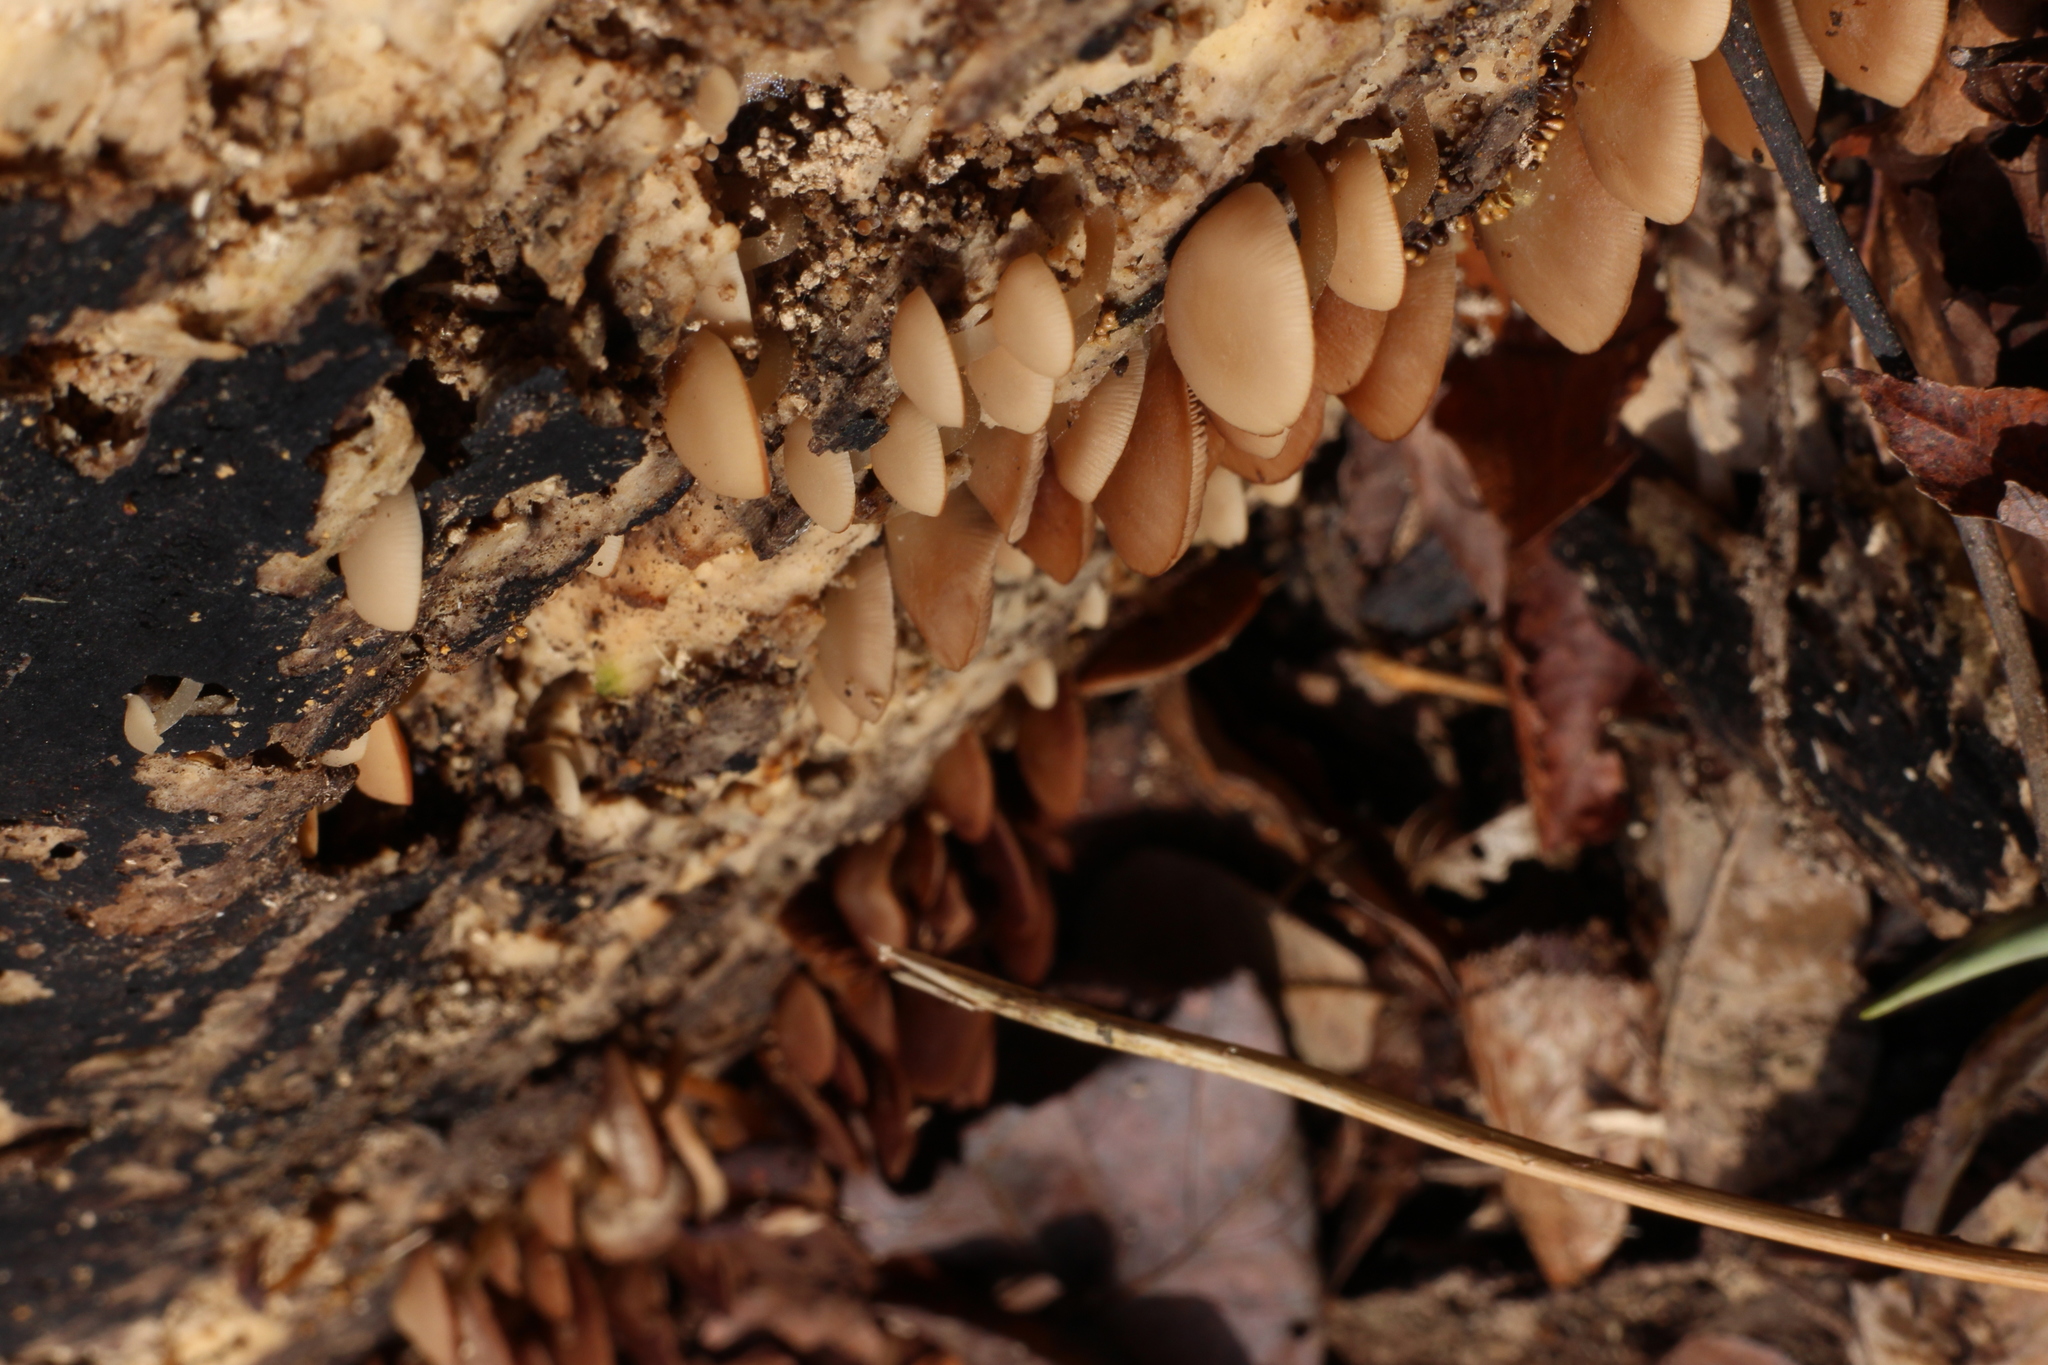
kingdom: Fungi
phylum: Basidiomycota
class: Agaricomycetes
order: Agaricales
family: Psathyrellaceae
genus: Psathyrella
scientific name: Psathyrella saccharinophila
